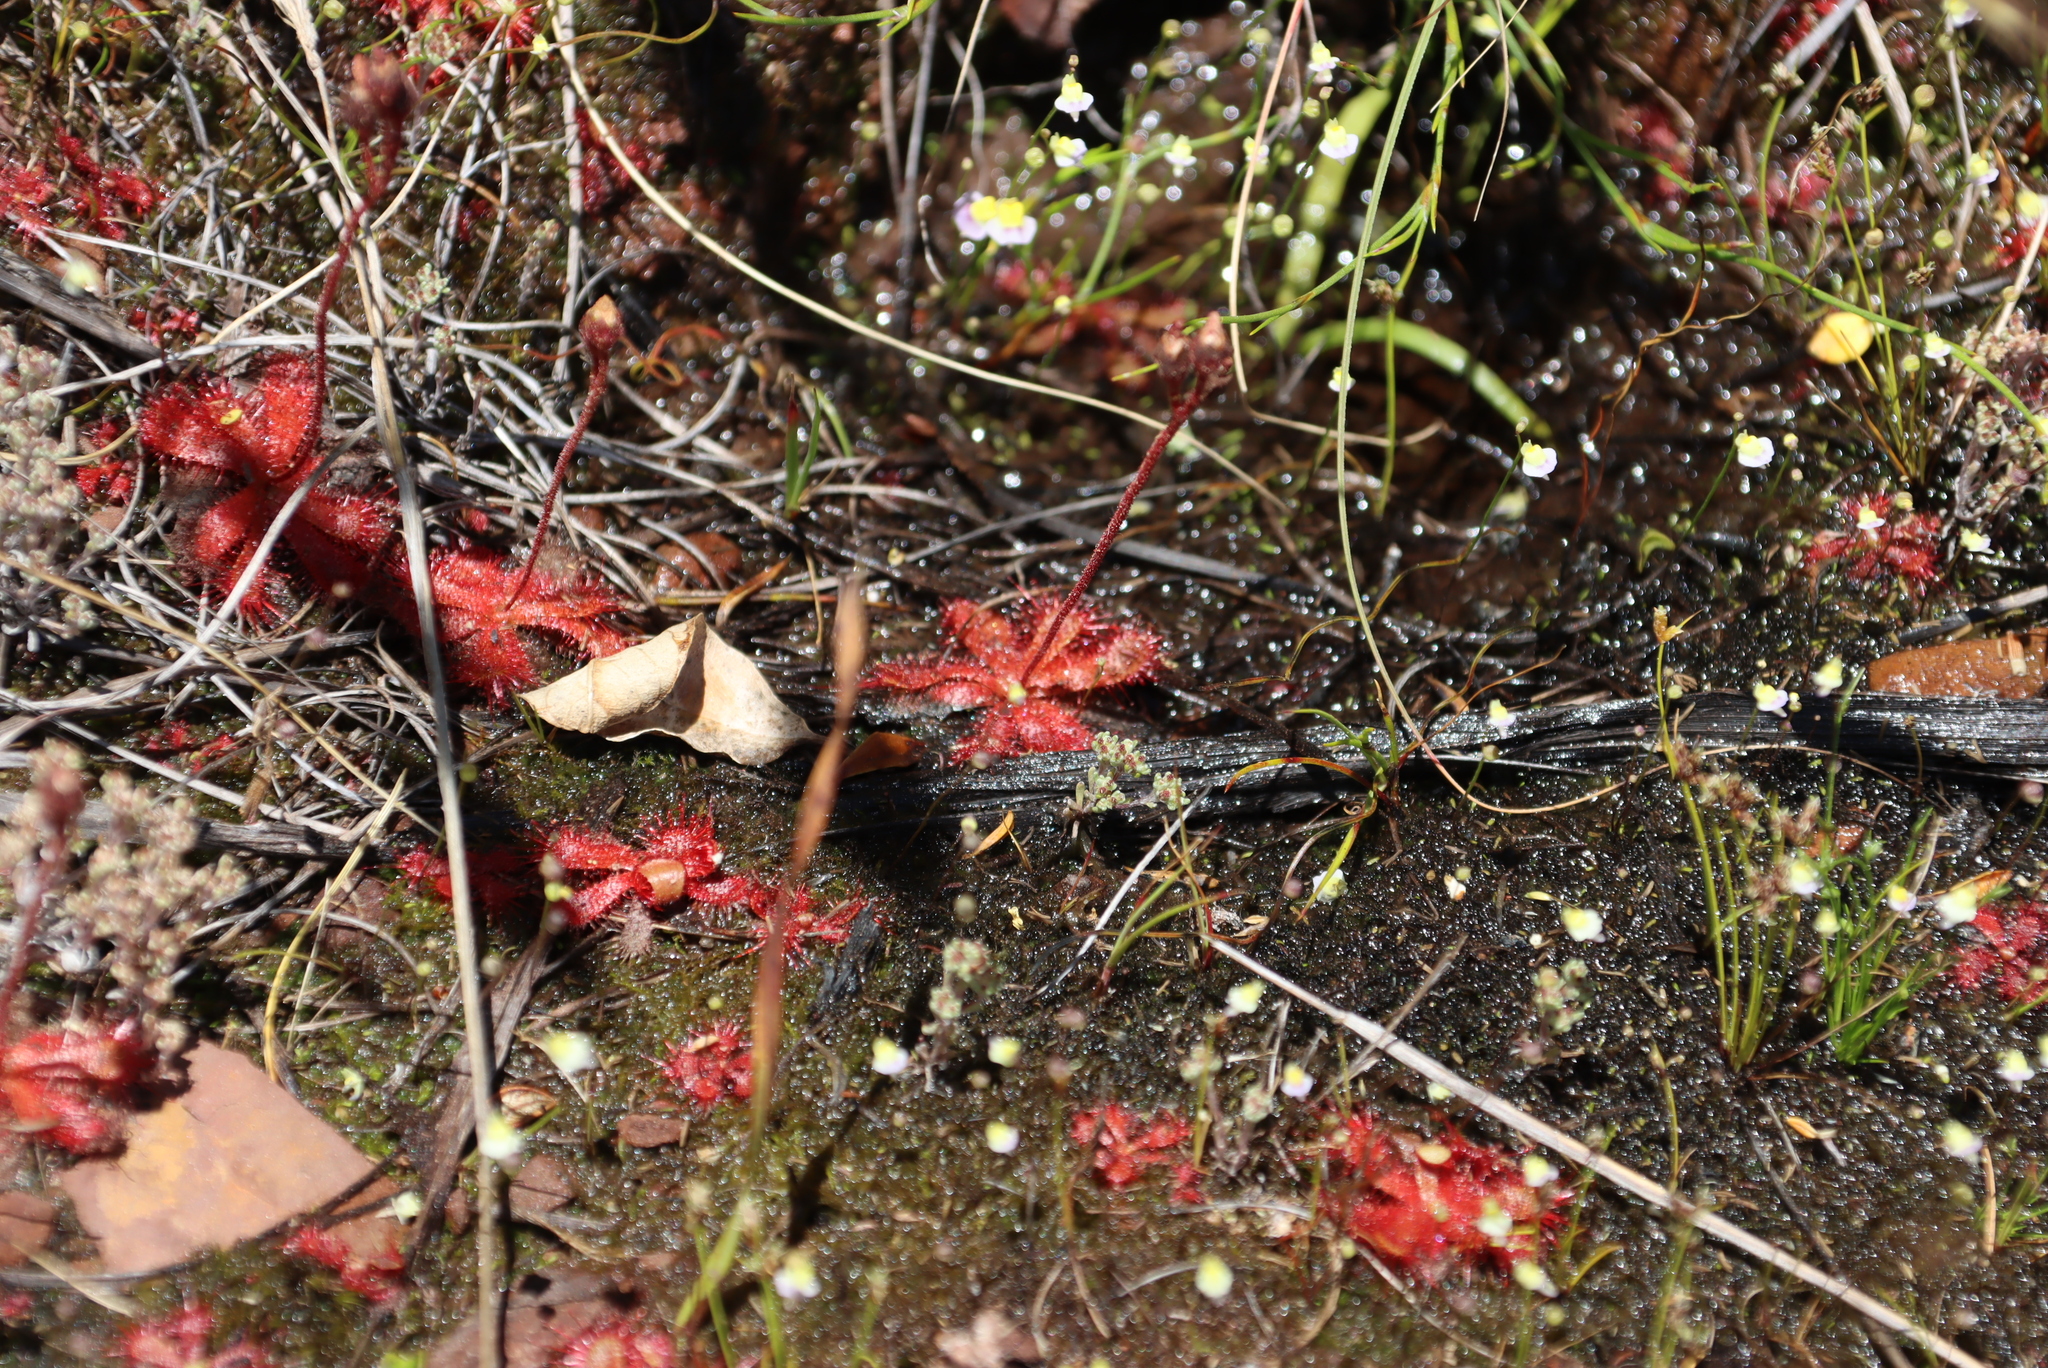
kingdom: Plantae
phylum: Tracheophyta
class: Magnoliopsida
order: Caryophyllales
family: Droseraceae
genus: Drosera
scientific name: Drosera trinervia
